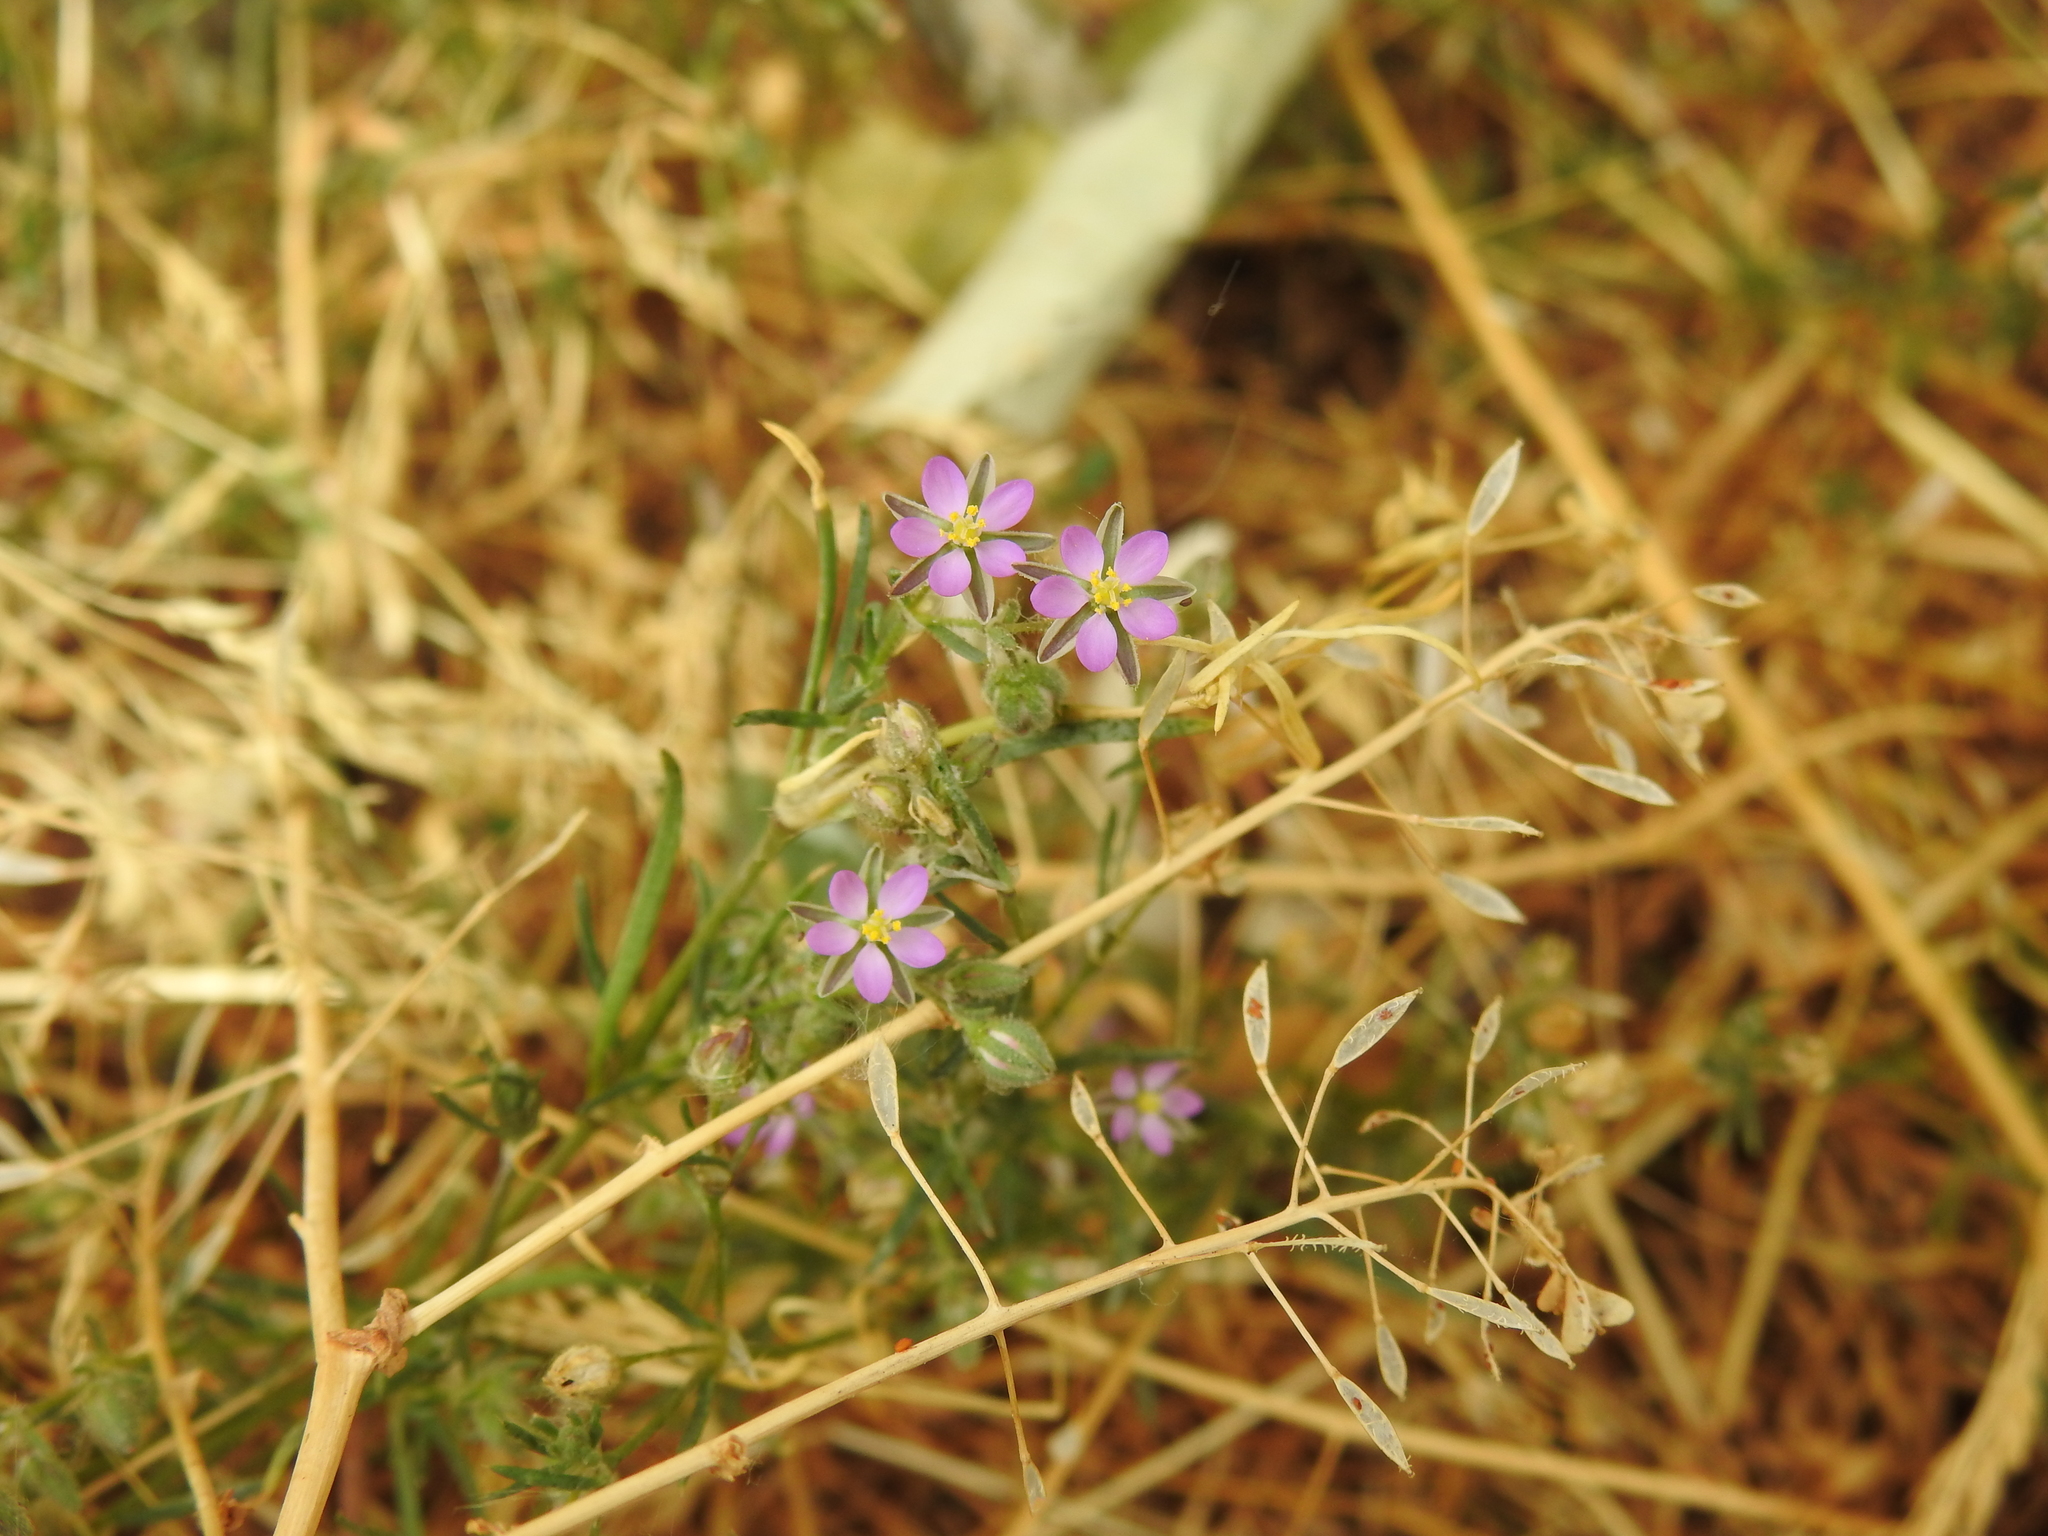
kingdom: Plantae
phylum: Tracheophyta
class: Magnoliopsida
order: Caryophyllales
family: Caryophyllaceae
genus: Spergularia
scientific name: Spergularia rubra
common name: Red sand-spurrey
